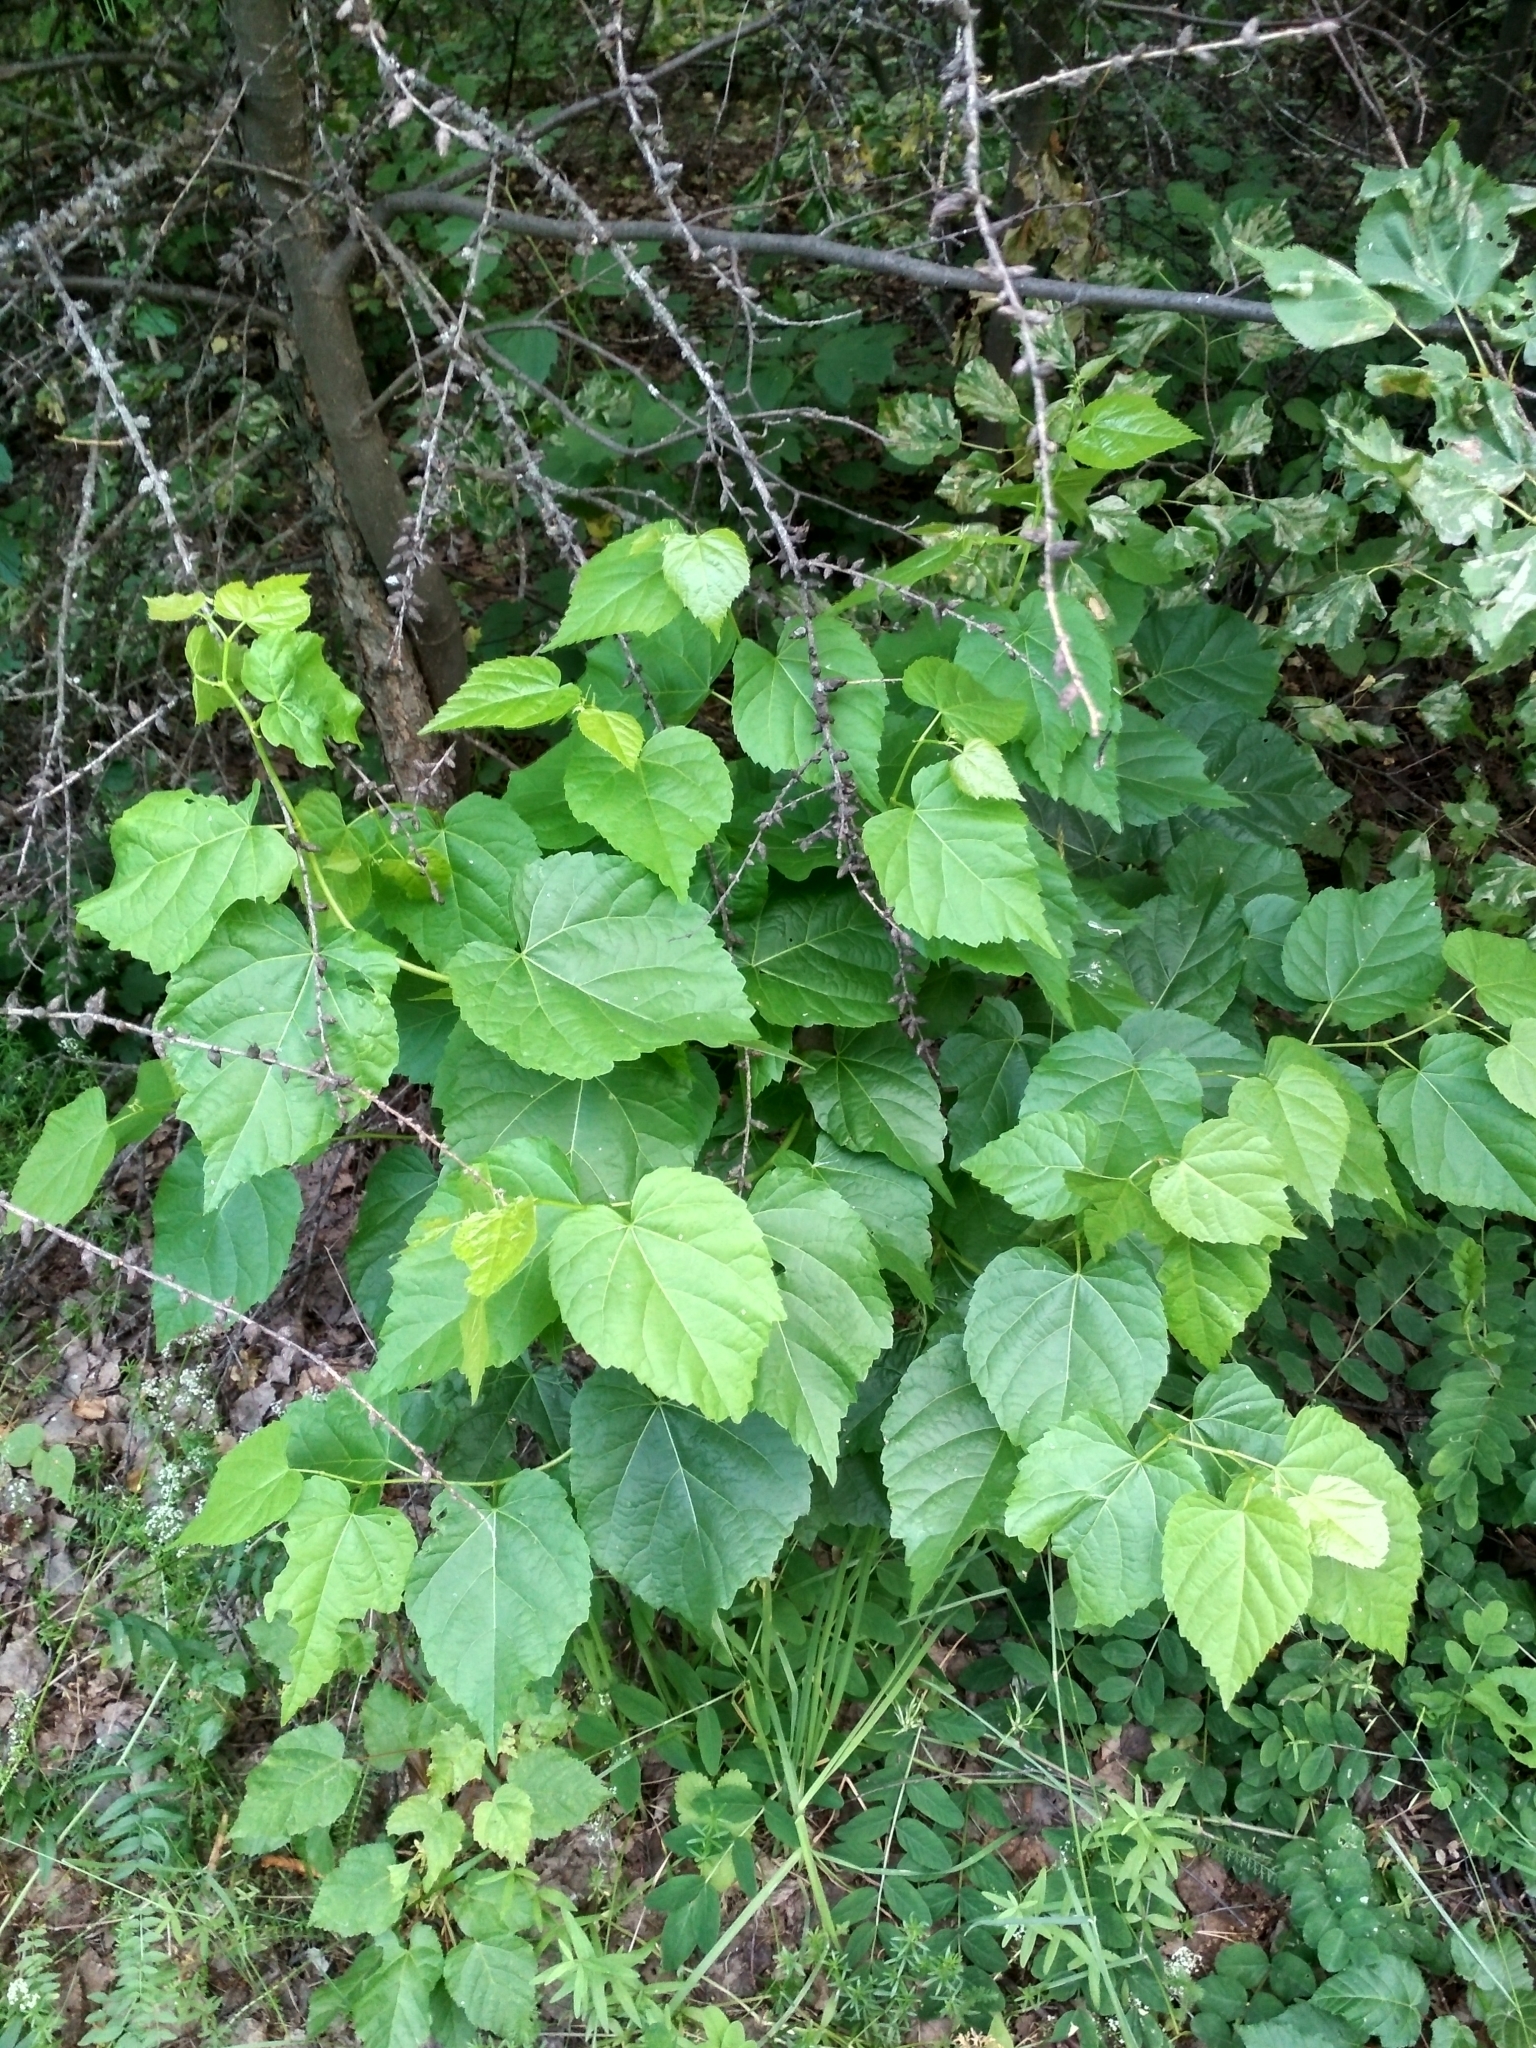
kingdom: Plantae
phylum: Tracheophyta
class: Magnoliopsida
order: Malvales
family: Malvaceae
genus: Tilia
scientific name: Tilia cordata
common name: Small-leaved lime
